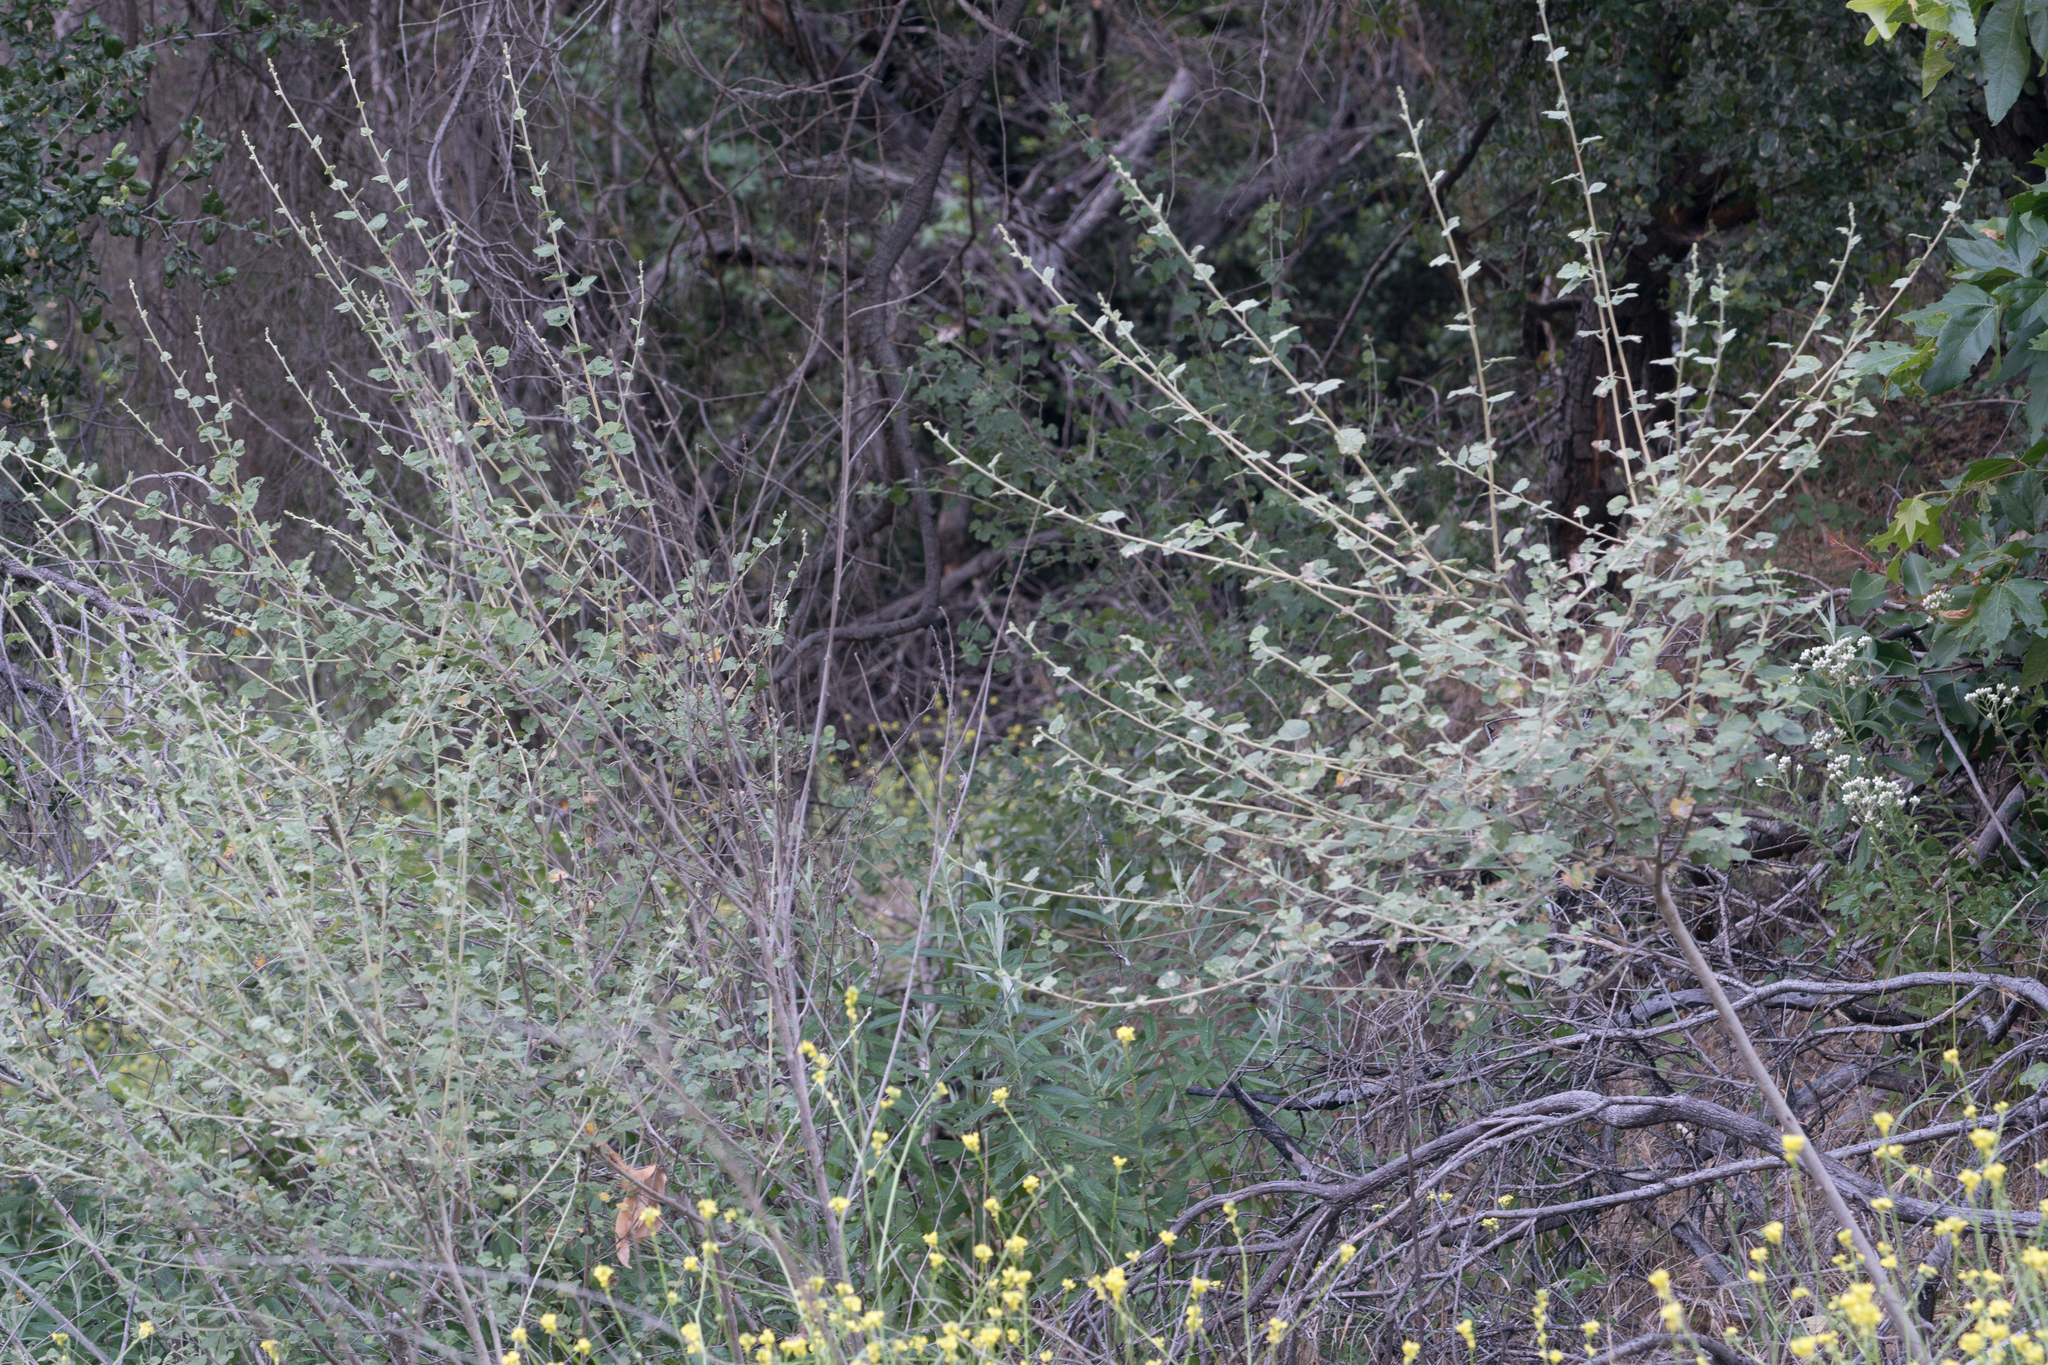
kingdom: Plantae
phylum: Tracheophyta
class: Magnoliopsida
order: Malvales
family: Malvaceae
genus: Malacothamnus
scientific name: Malacothamnus fasciculatus
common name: Sant cruz island bush-mallow
